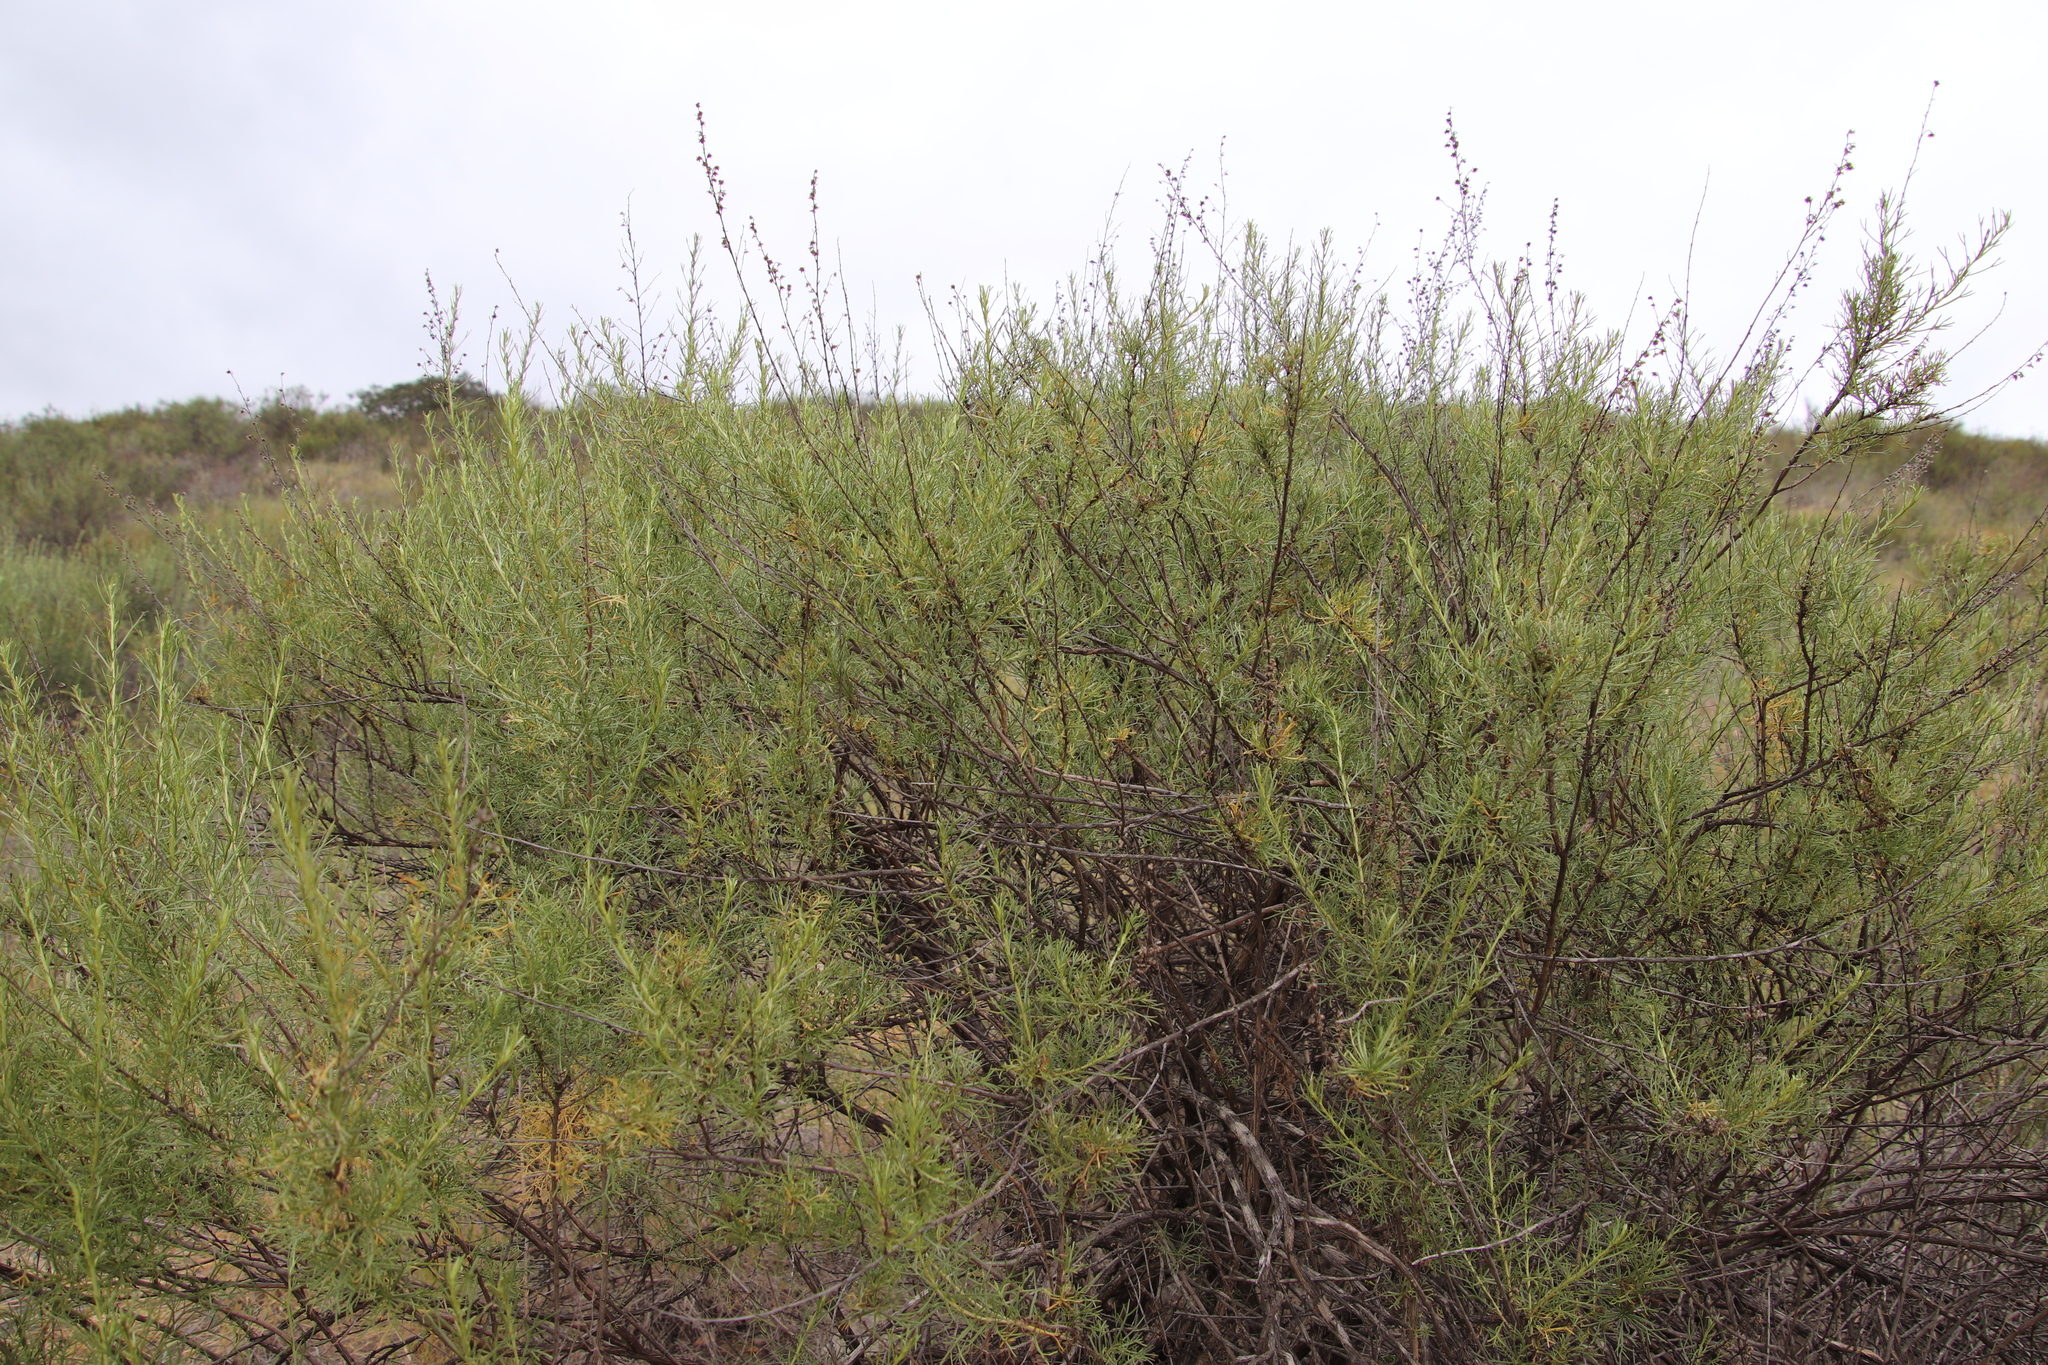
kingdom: Plantae
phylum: Tracheophyta
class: Magnoliopsida
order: Asterales
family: Asteraceae
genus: Artemisia
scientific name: Artemisia californica
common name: California sagebrush
